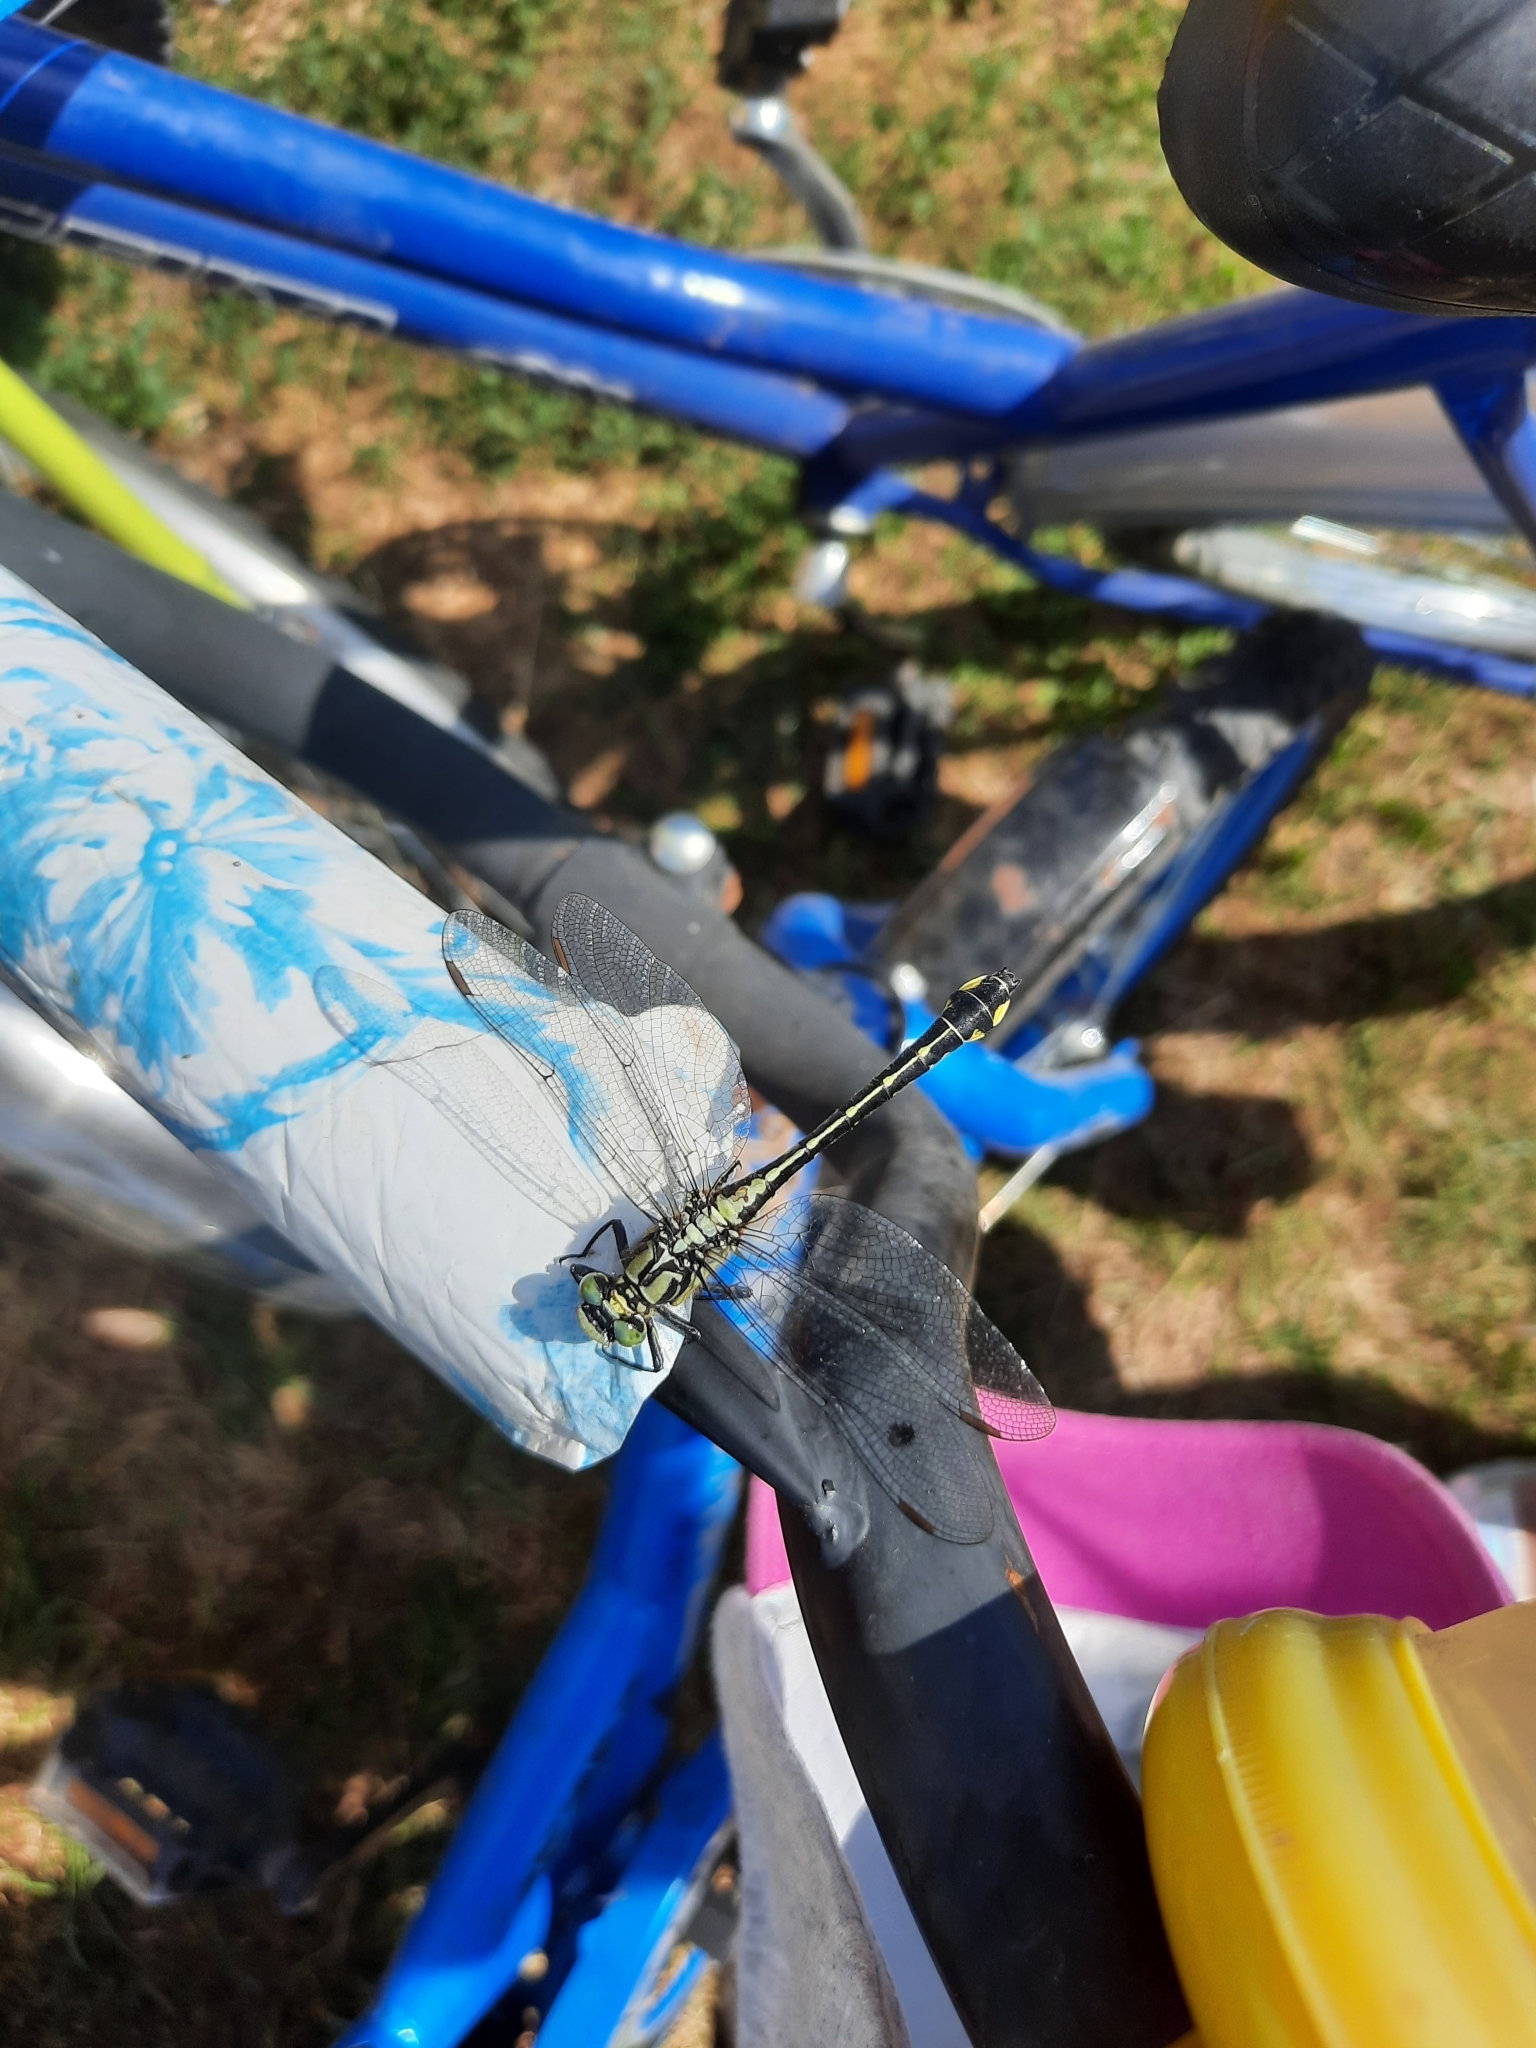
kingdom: Animalia
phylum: Arthropoda
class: Insecta
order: Odonata
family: Gomphidae
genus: Gomphus
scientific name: Gomphus vulgatissimus
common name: Club-tailed dragonfly
